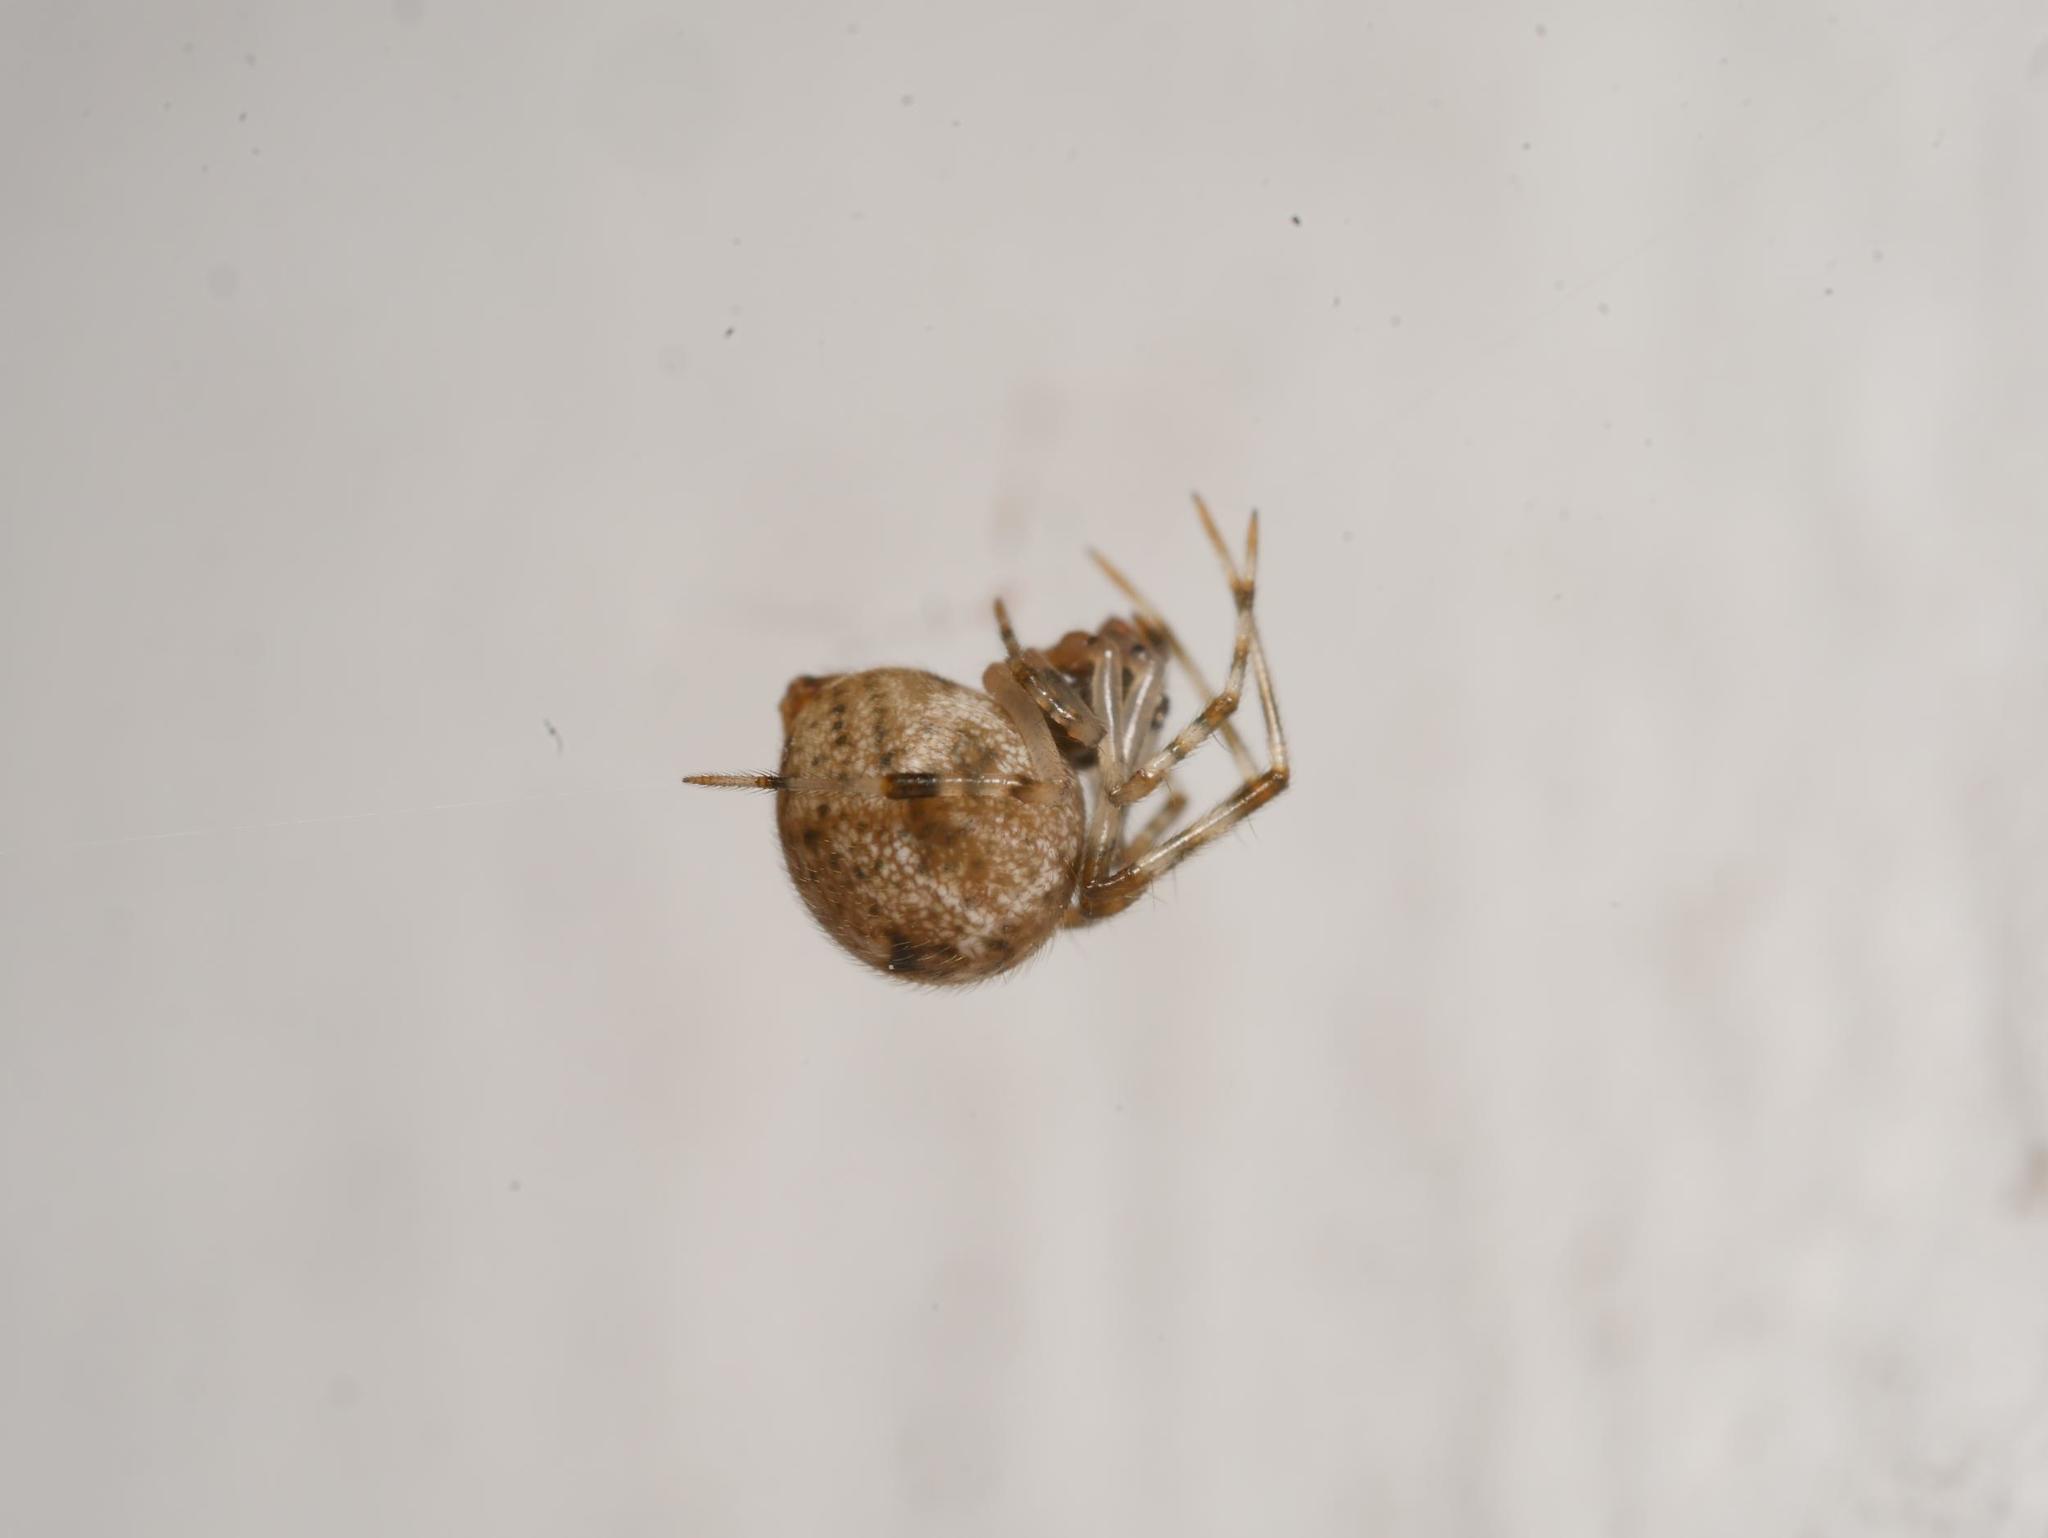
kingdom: Animalia
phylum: Arthropoda
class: Arachnida
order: Araneae
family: Theridiidae
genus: Parasteatoda
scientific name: Parasteatoda tepidariorum
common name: Common house spider
